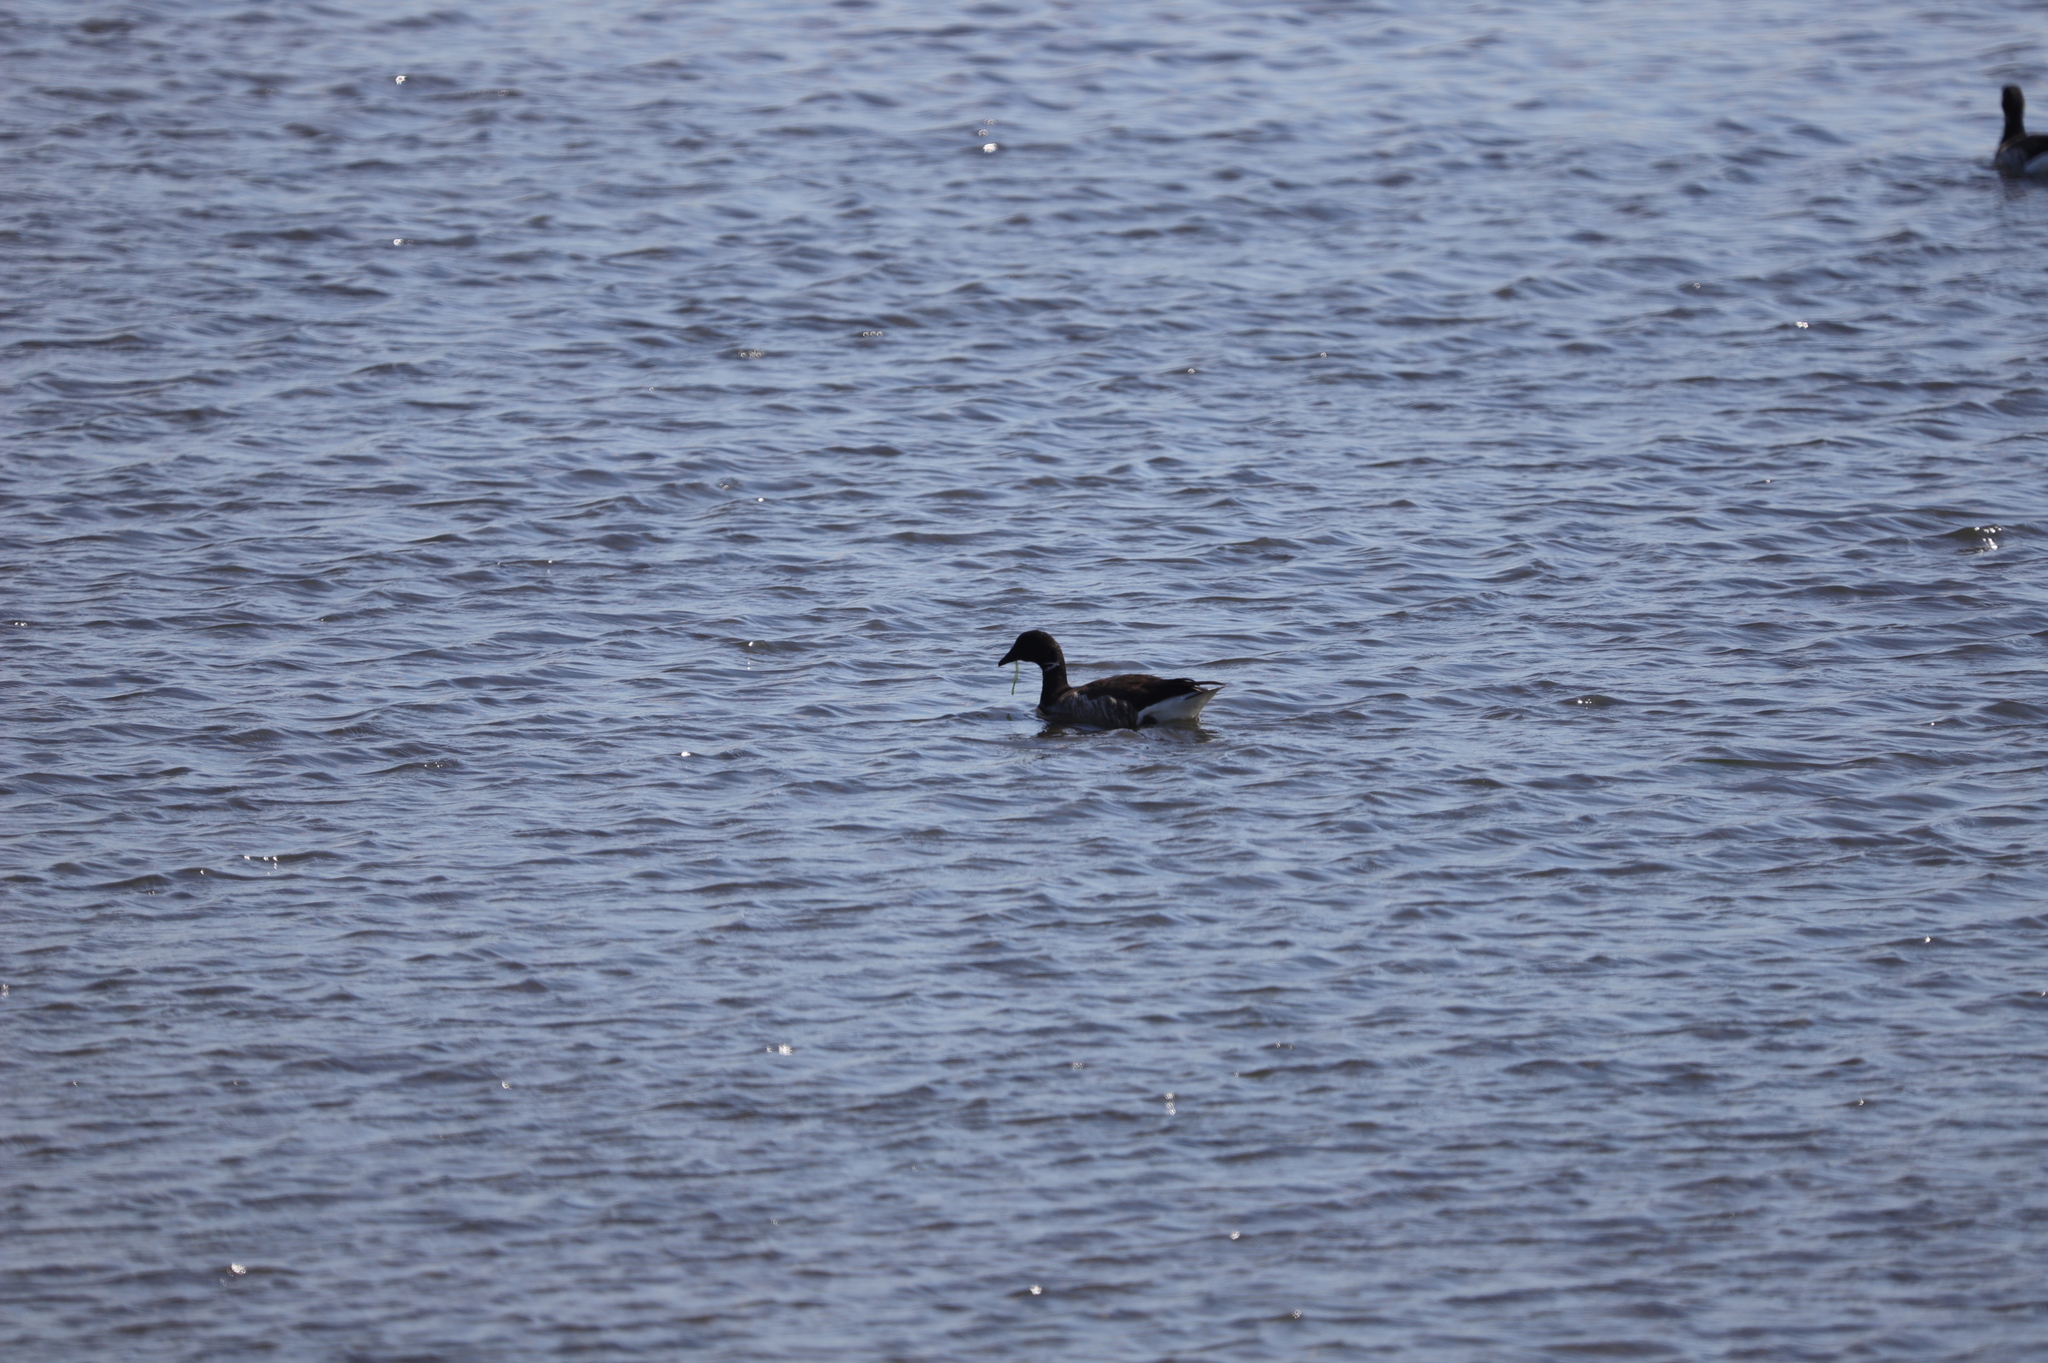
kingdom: Animalia
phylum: Chordata
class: Aves
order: Anseriformes
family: Anatidae
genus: Branta
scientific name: Branta bernicla
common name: Brant goose
